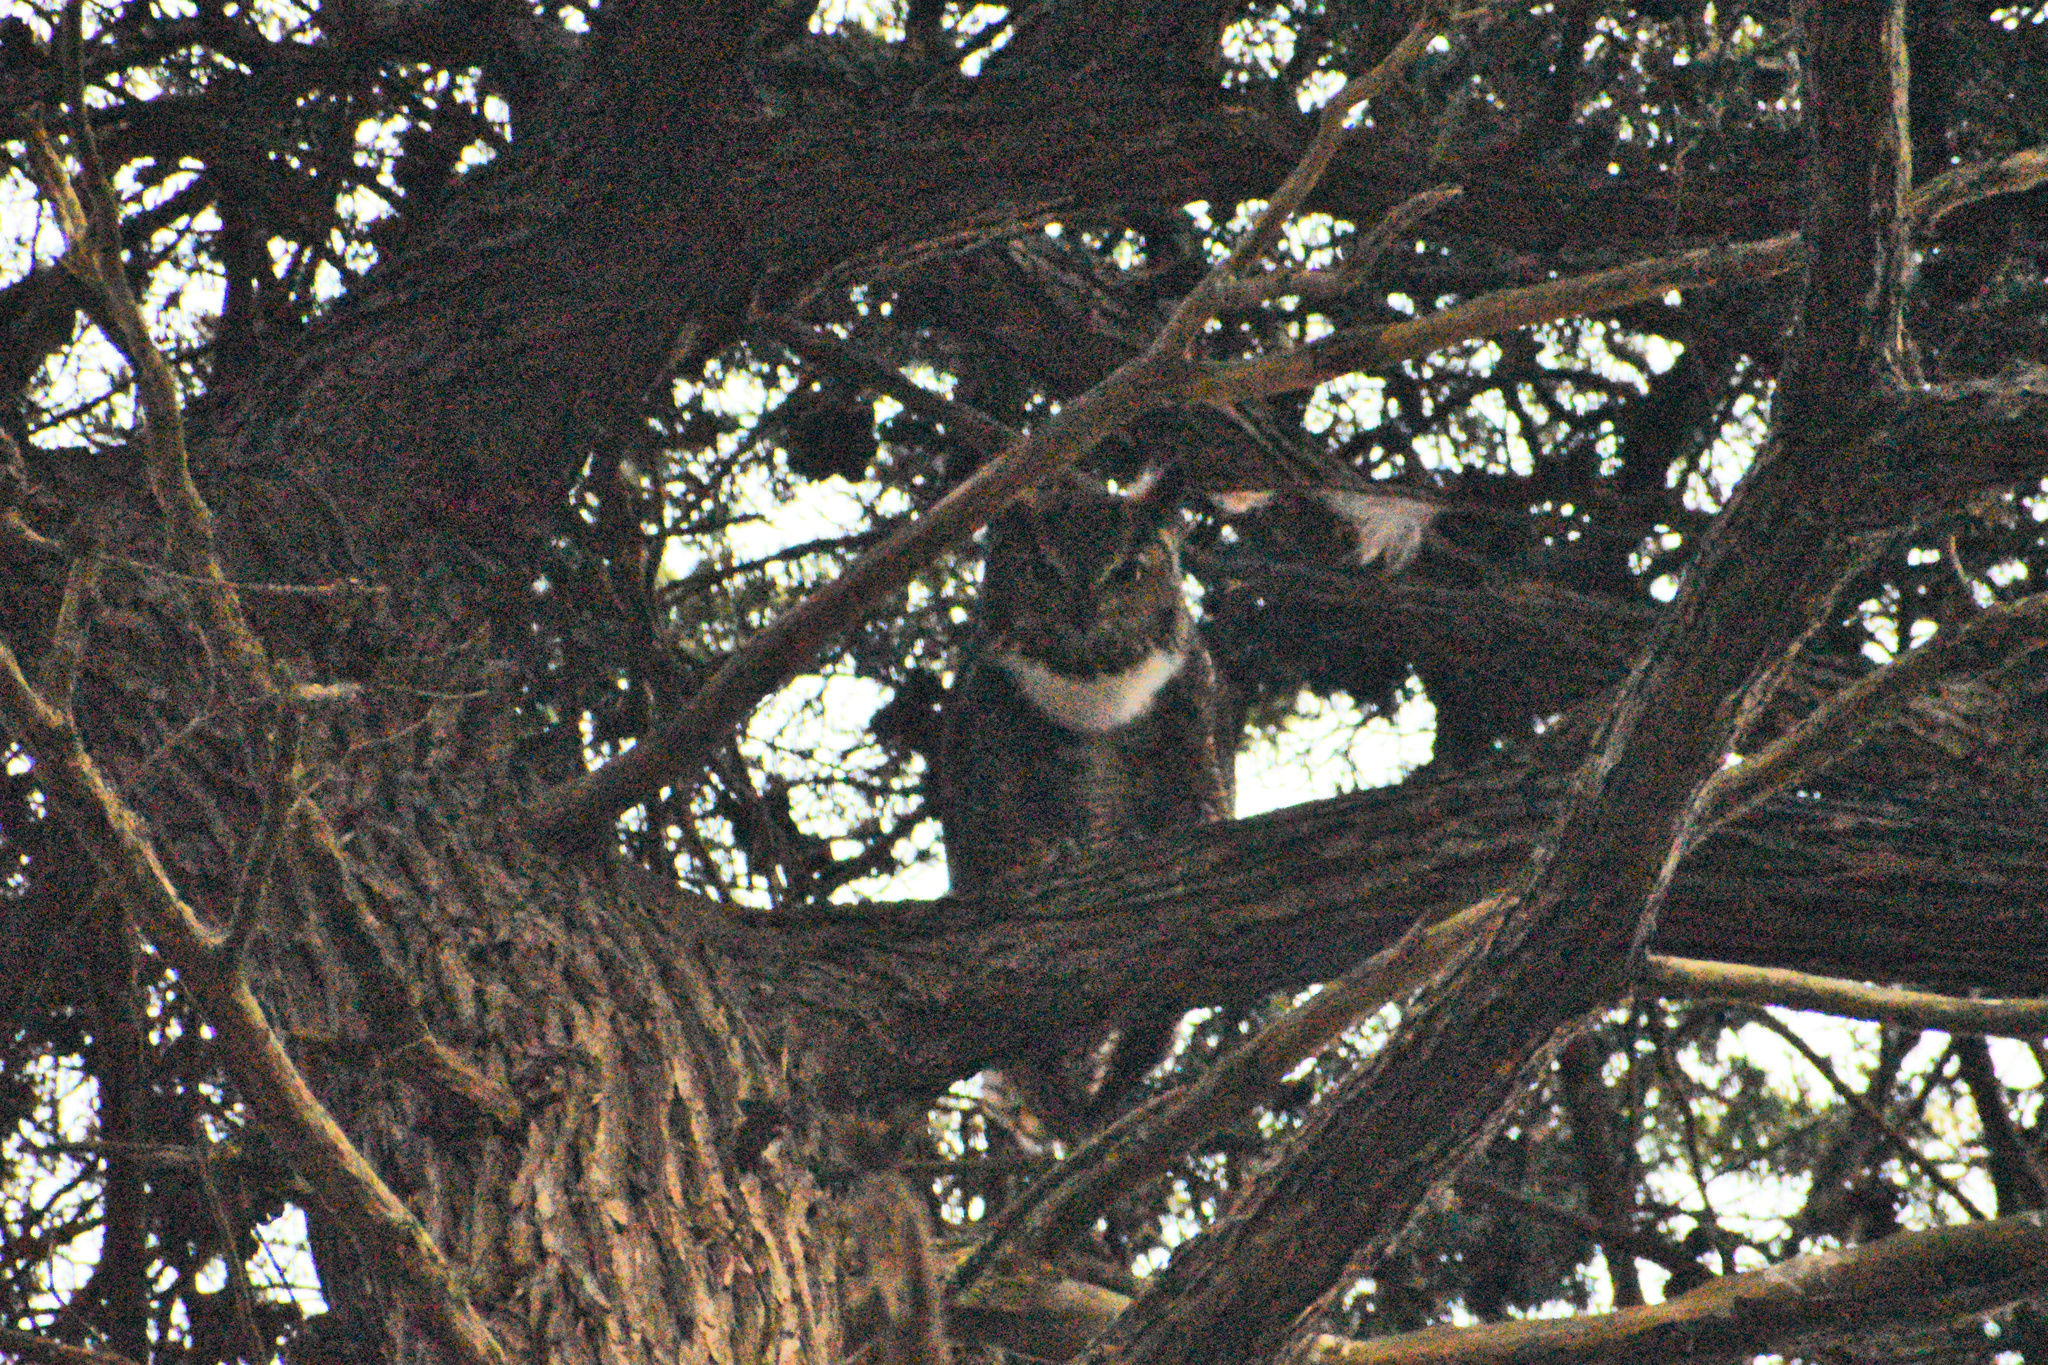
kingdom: Animalia
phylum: Chordata
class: Aves
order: Strigiformes
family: Strigidae
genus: Bubo
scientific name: Bubo virginianus
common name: Great horned owl
